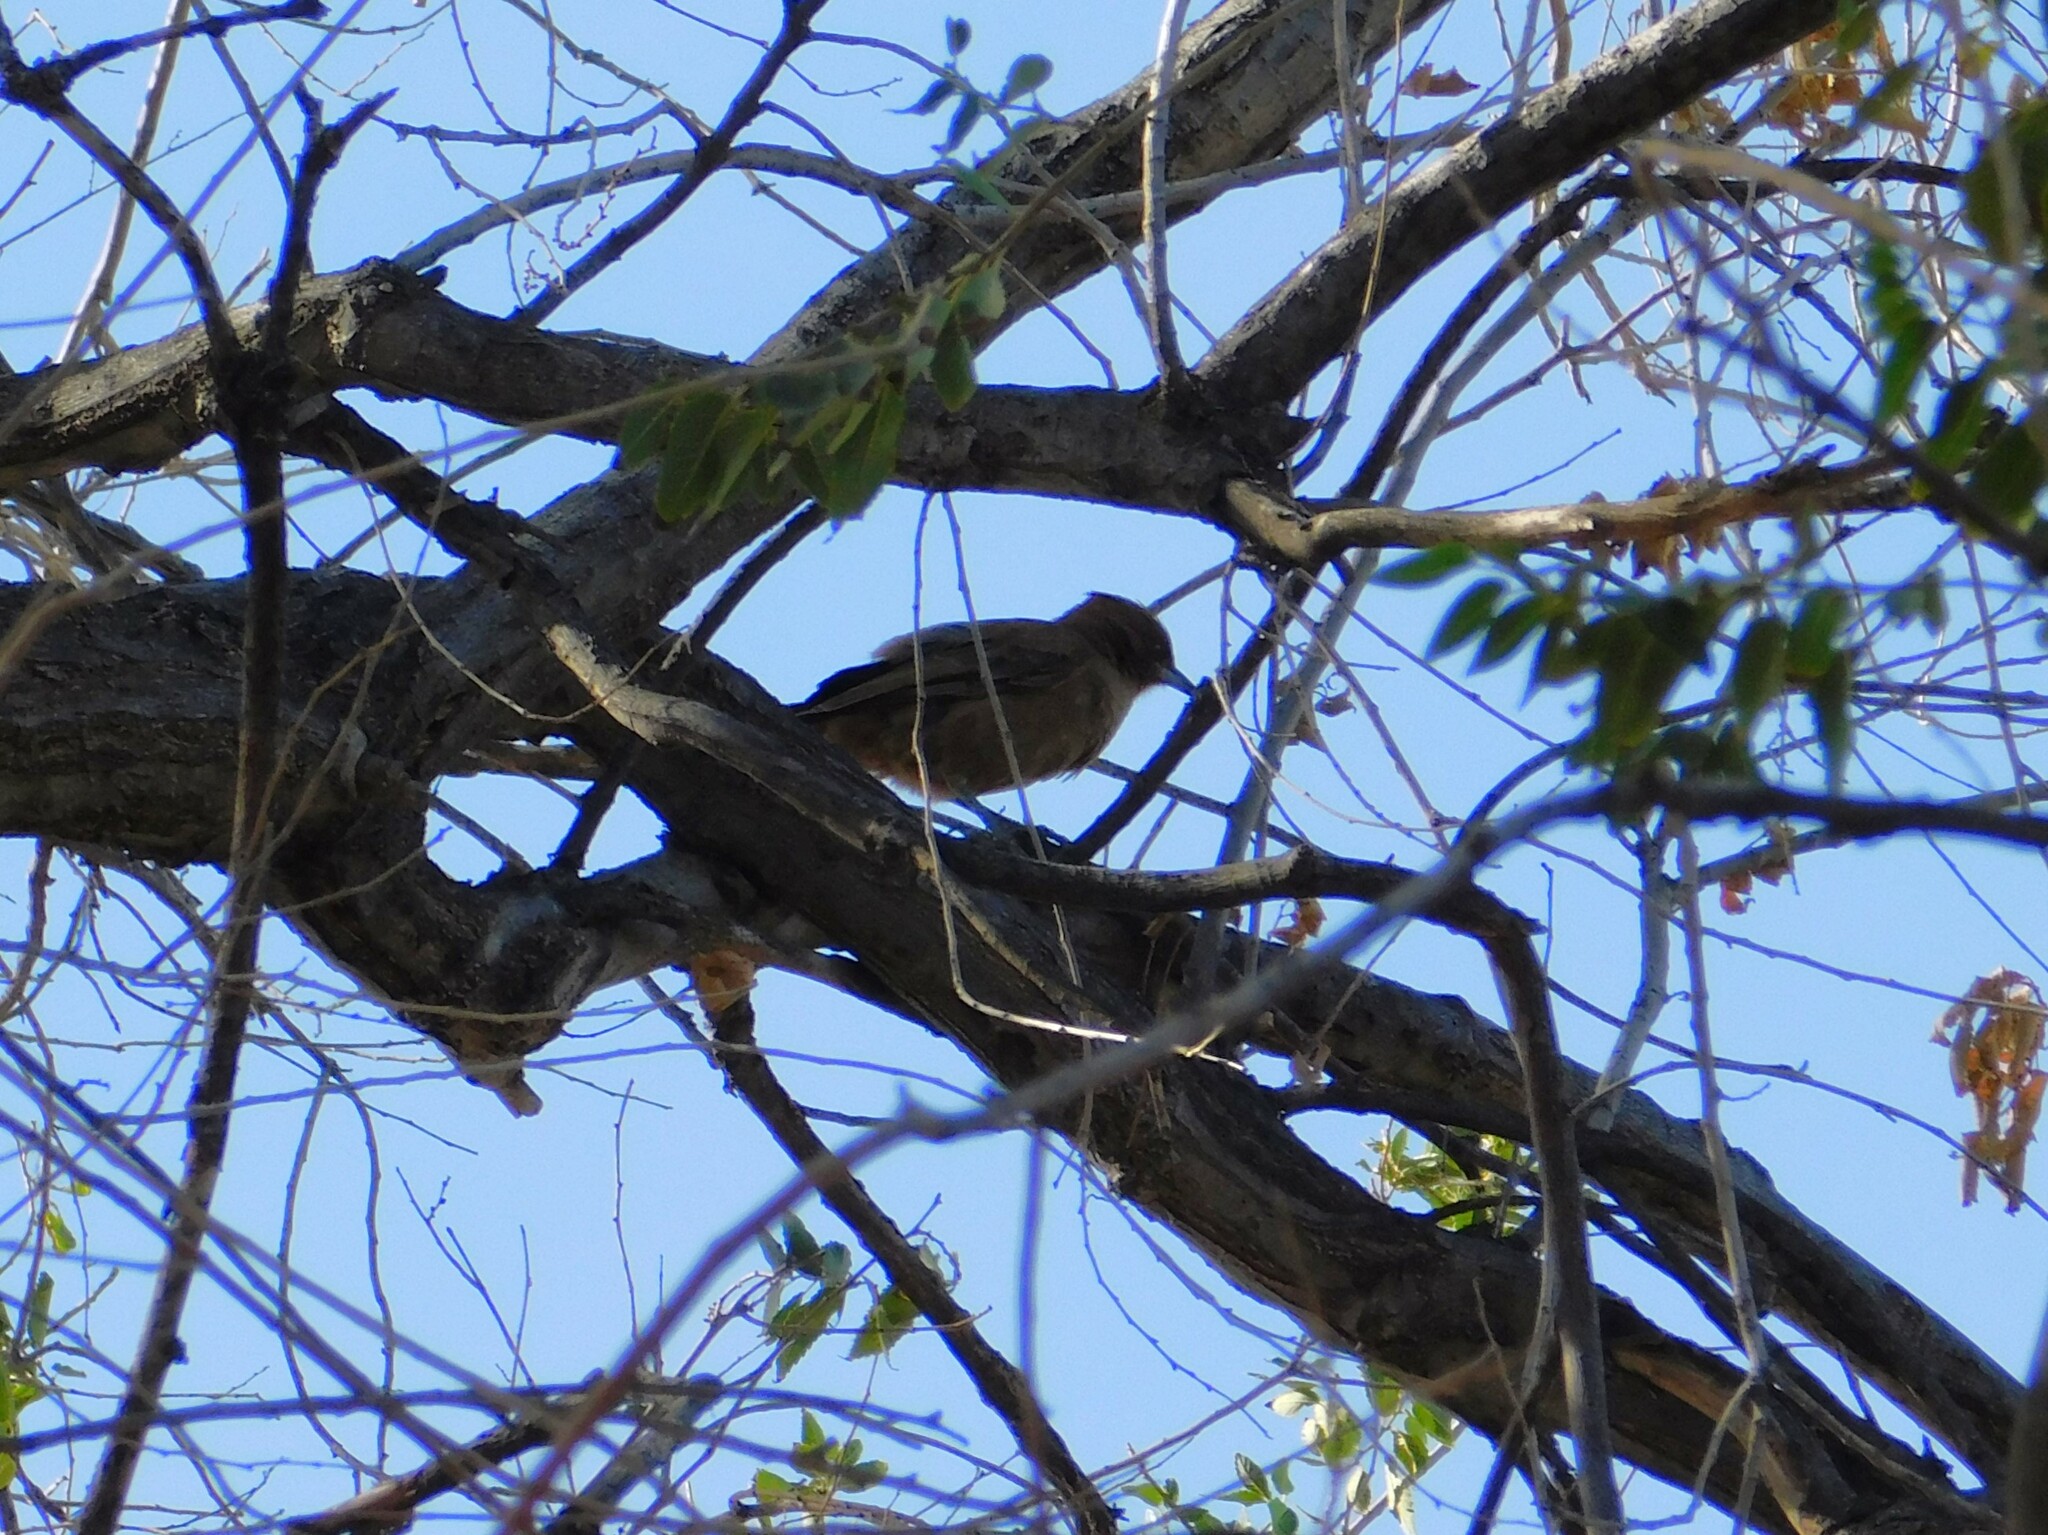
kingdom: Animalia
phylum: Chordata
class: Aves
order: Passeriformes
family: Furnariidae
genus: Pseudoseisura
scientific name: Pseudoseisura lophotes
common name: Brown cacholote
